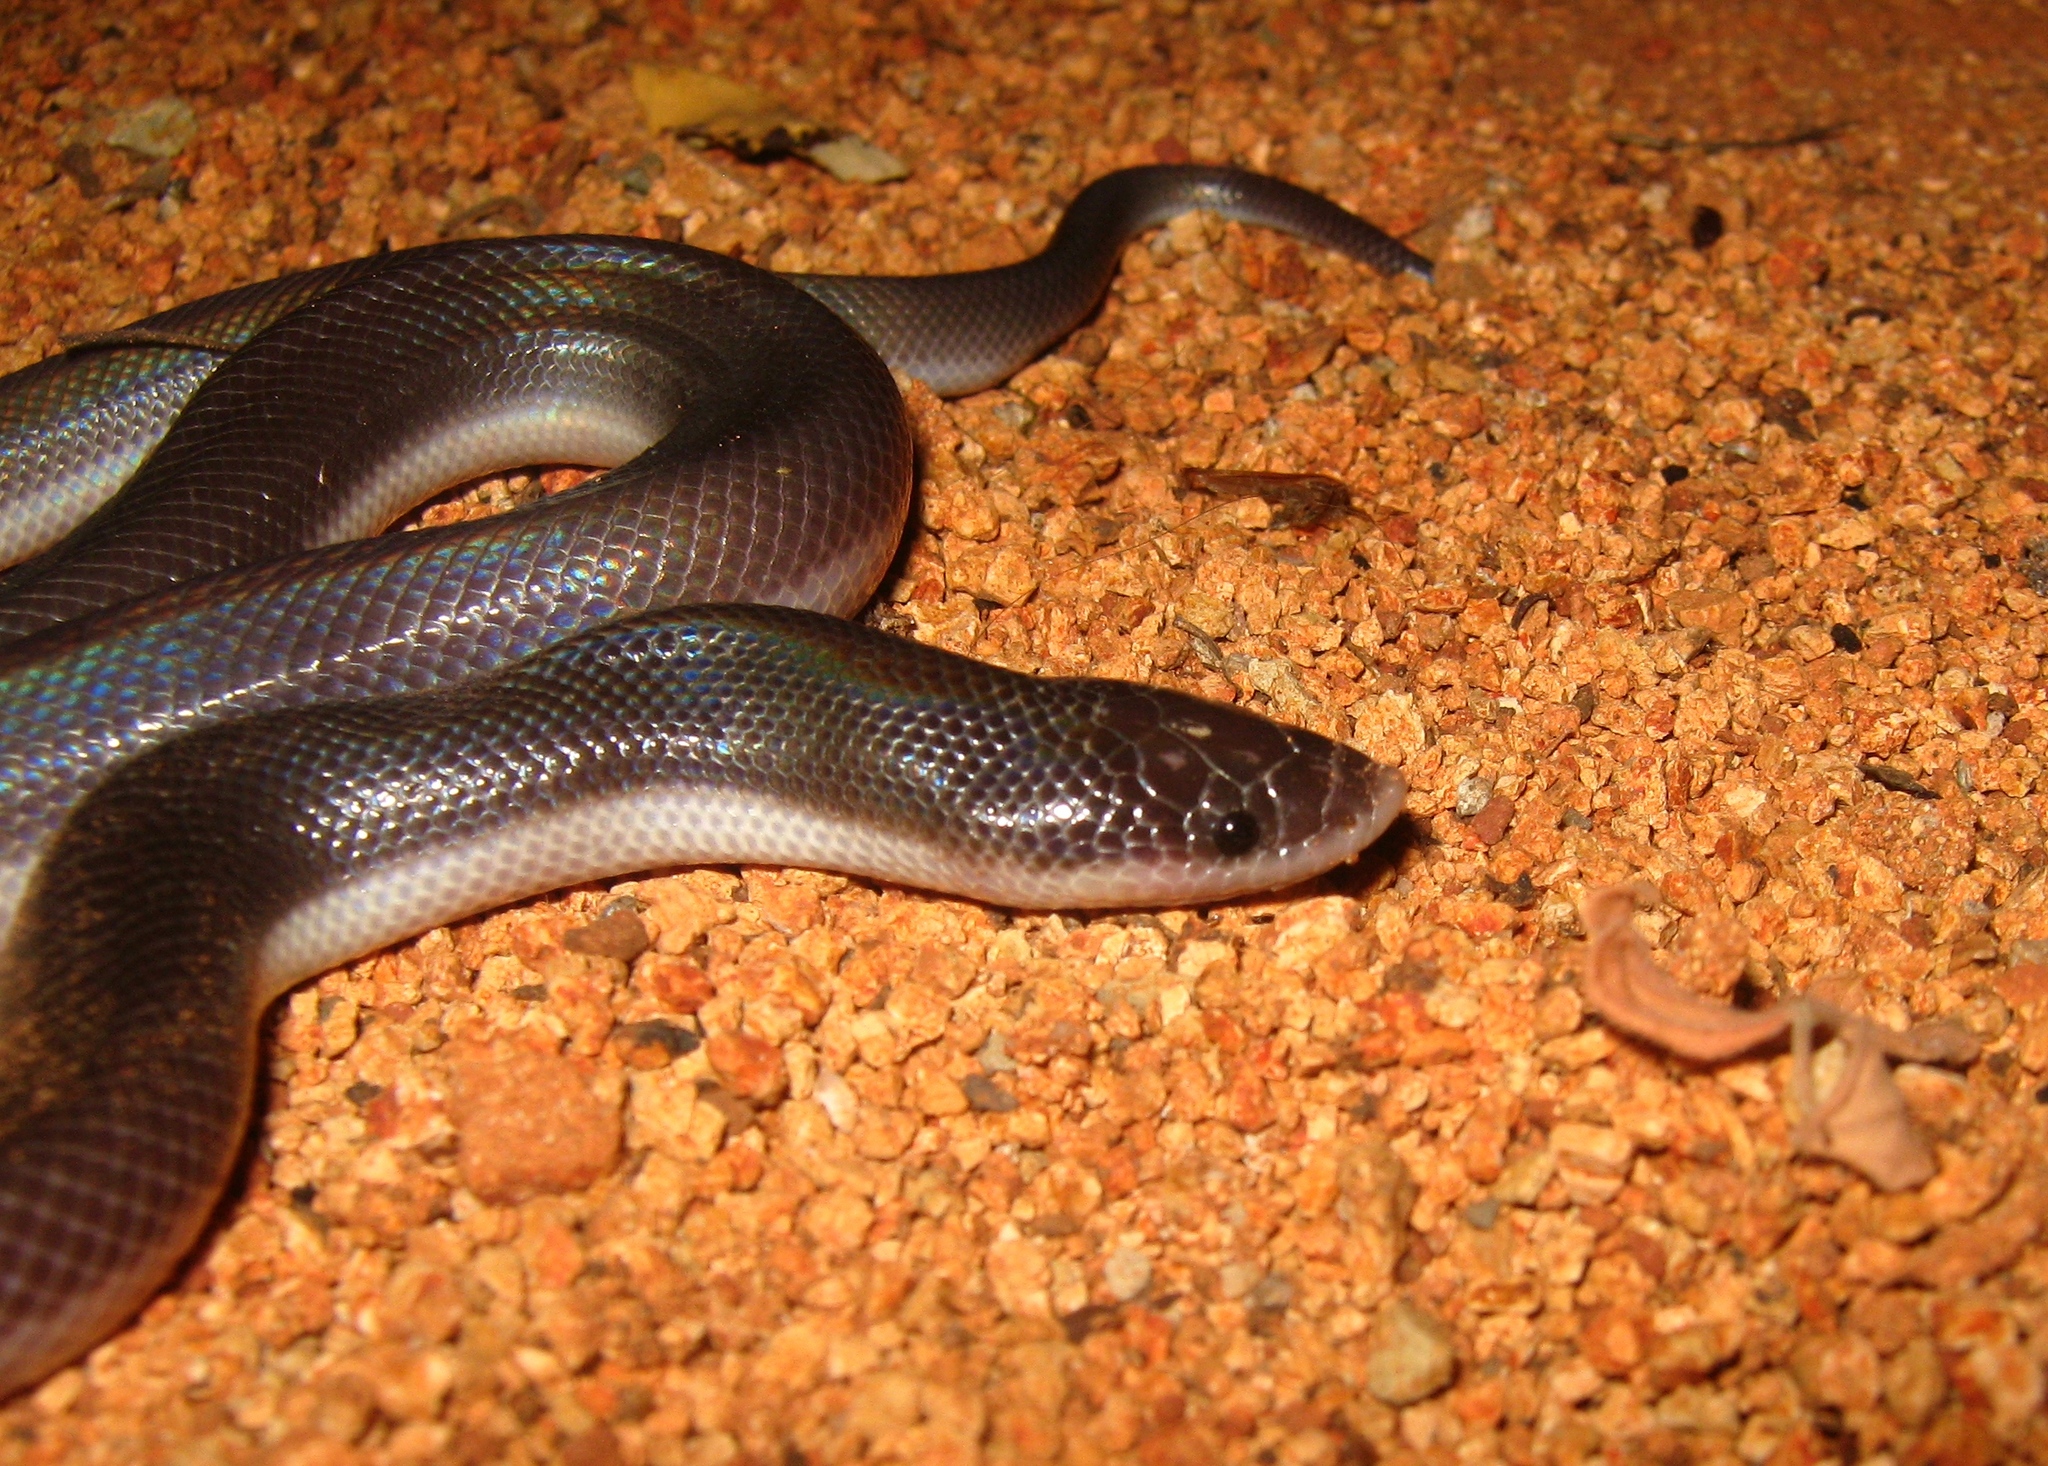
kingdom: Animalia
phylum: Chordata
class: Squamata
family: Loxocemidae
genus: Loxocemus
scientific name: Loxocemus bicolor
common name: Mexican burrowing python
